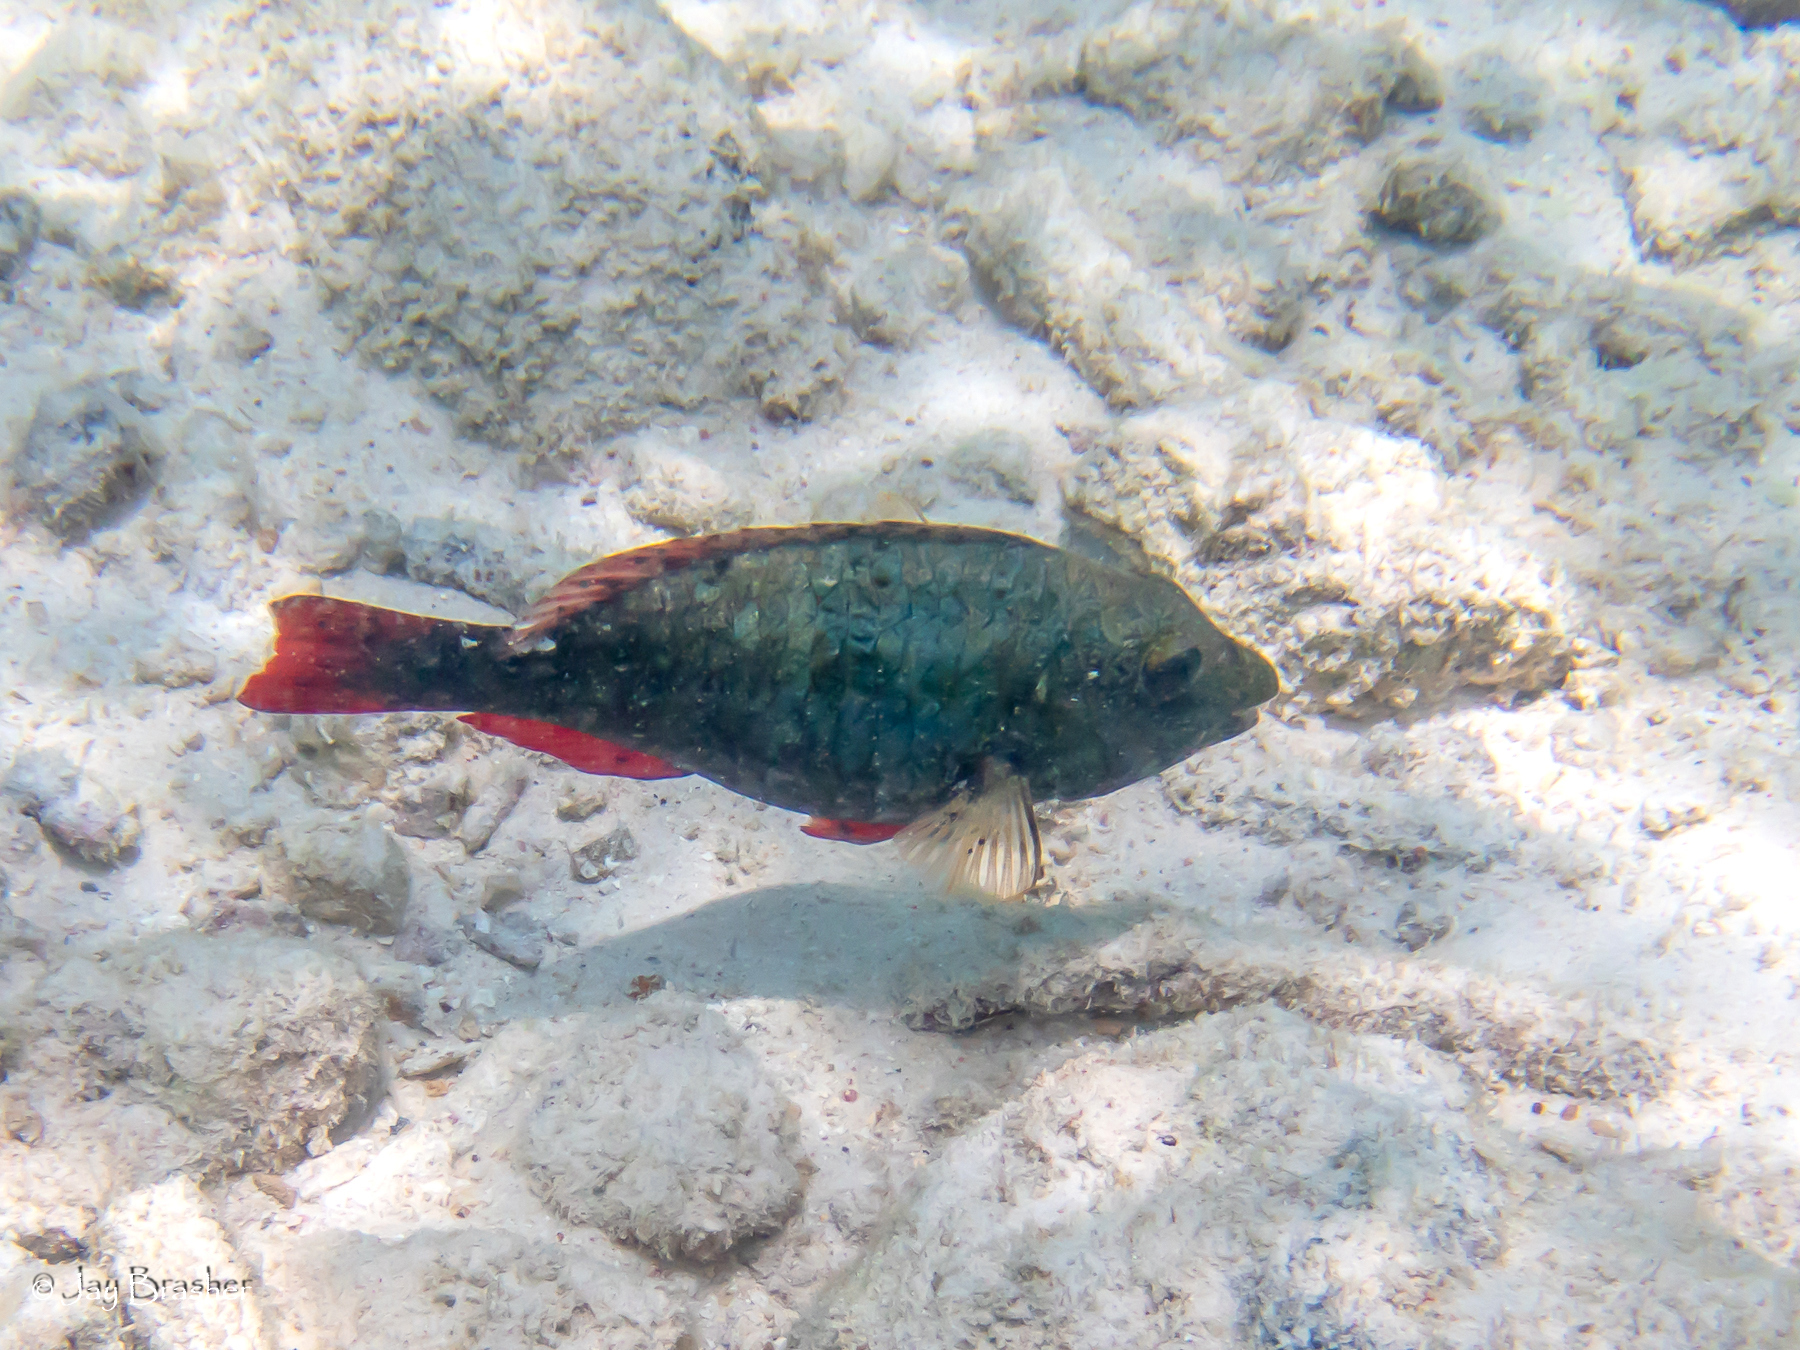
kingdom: Animalia
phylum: Chordata
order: Perciformes
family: Scaridae
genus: Sparisoma
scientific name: Sparisoma aurofrenatum
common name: Redband parrotfish
